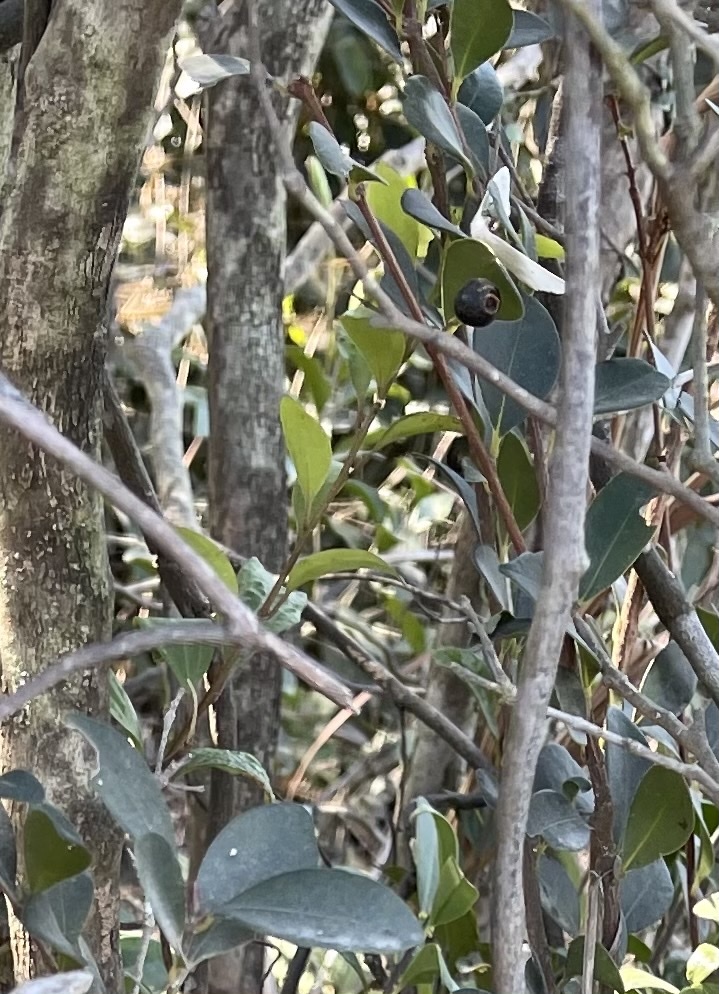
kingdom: Plantae
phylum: Tracheophyta
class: Magnoliopsida
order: Myrtales
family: Myrtaceae
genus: Syzygium
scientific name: Syzygium buxifolium
